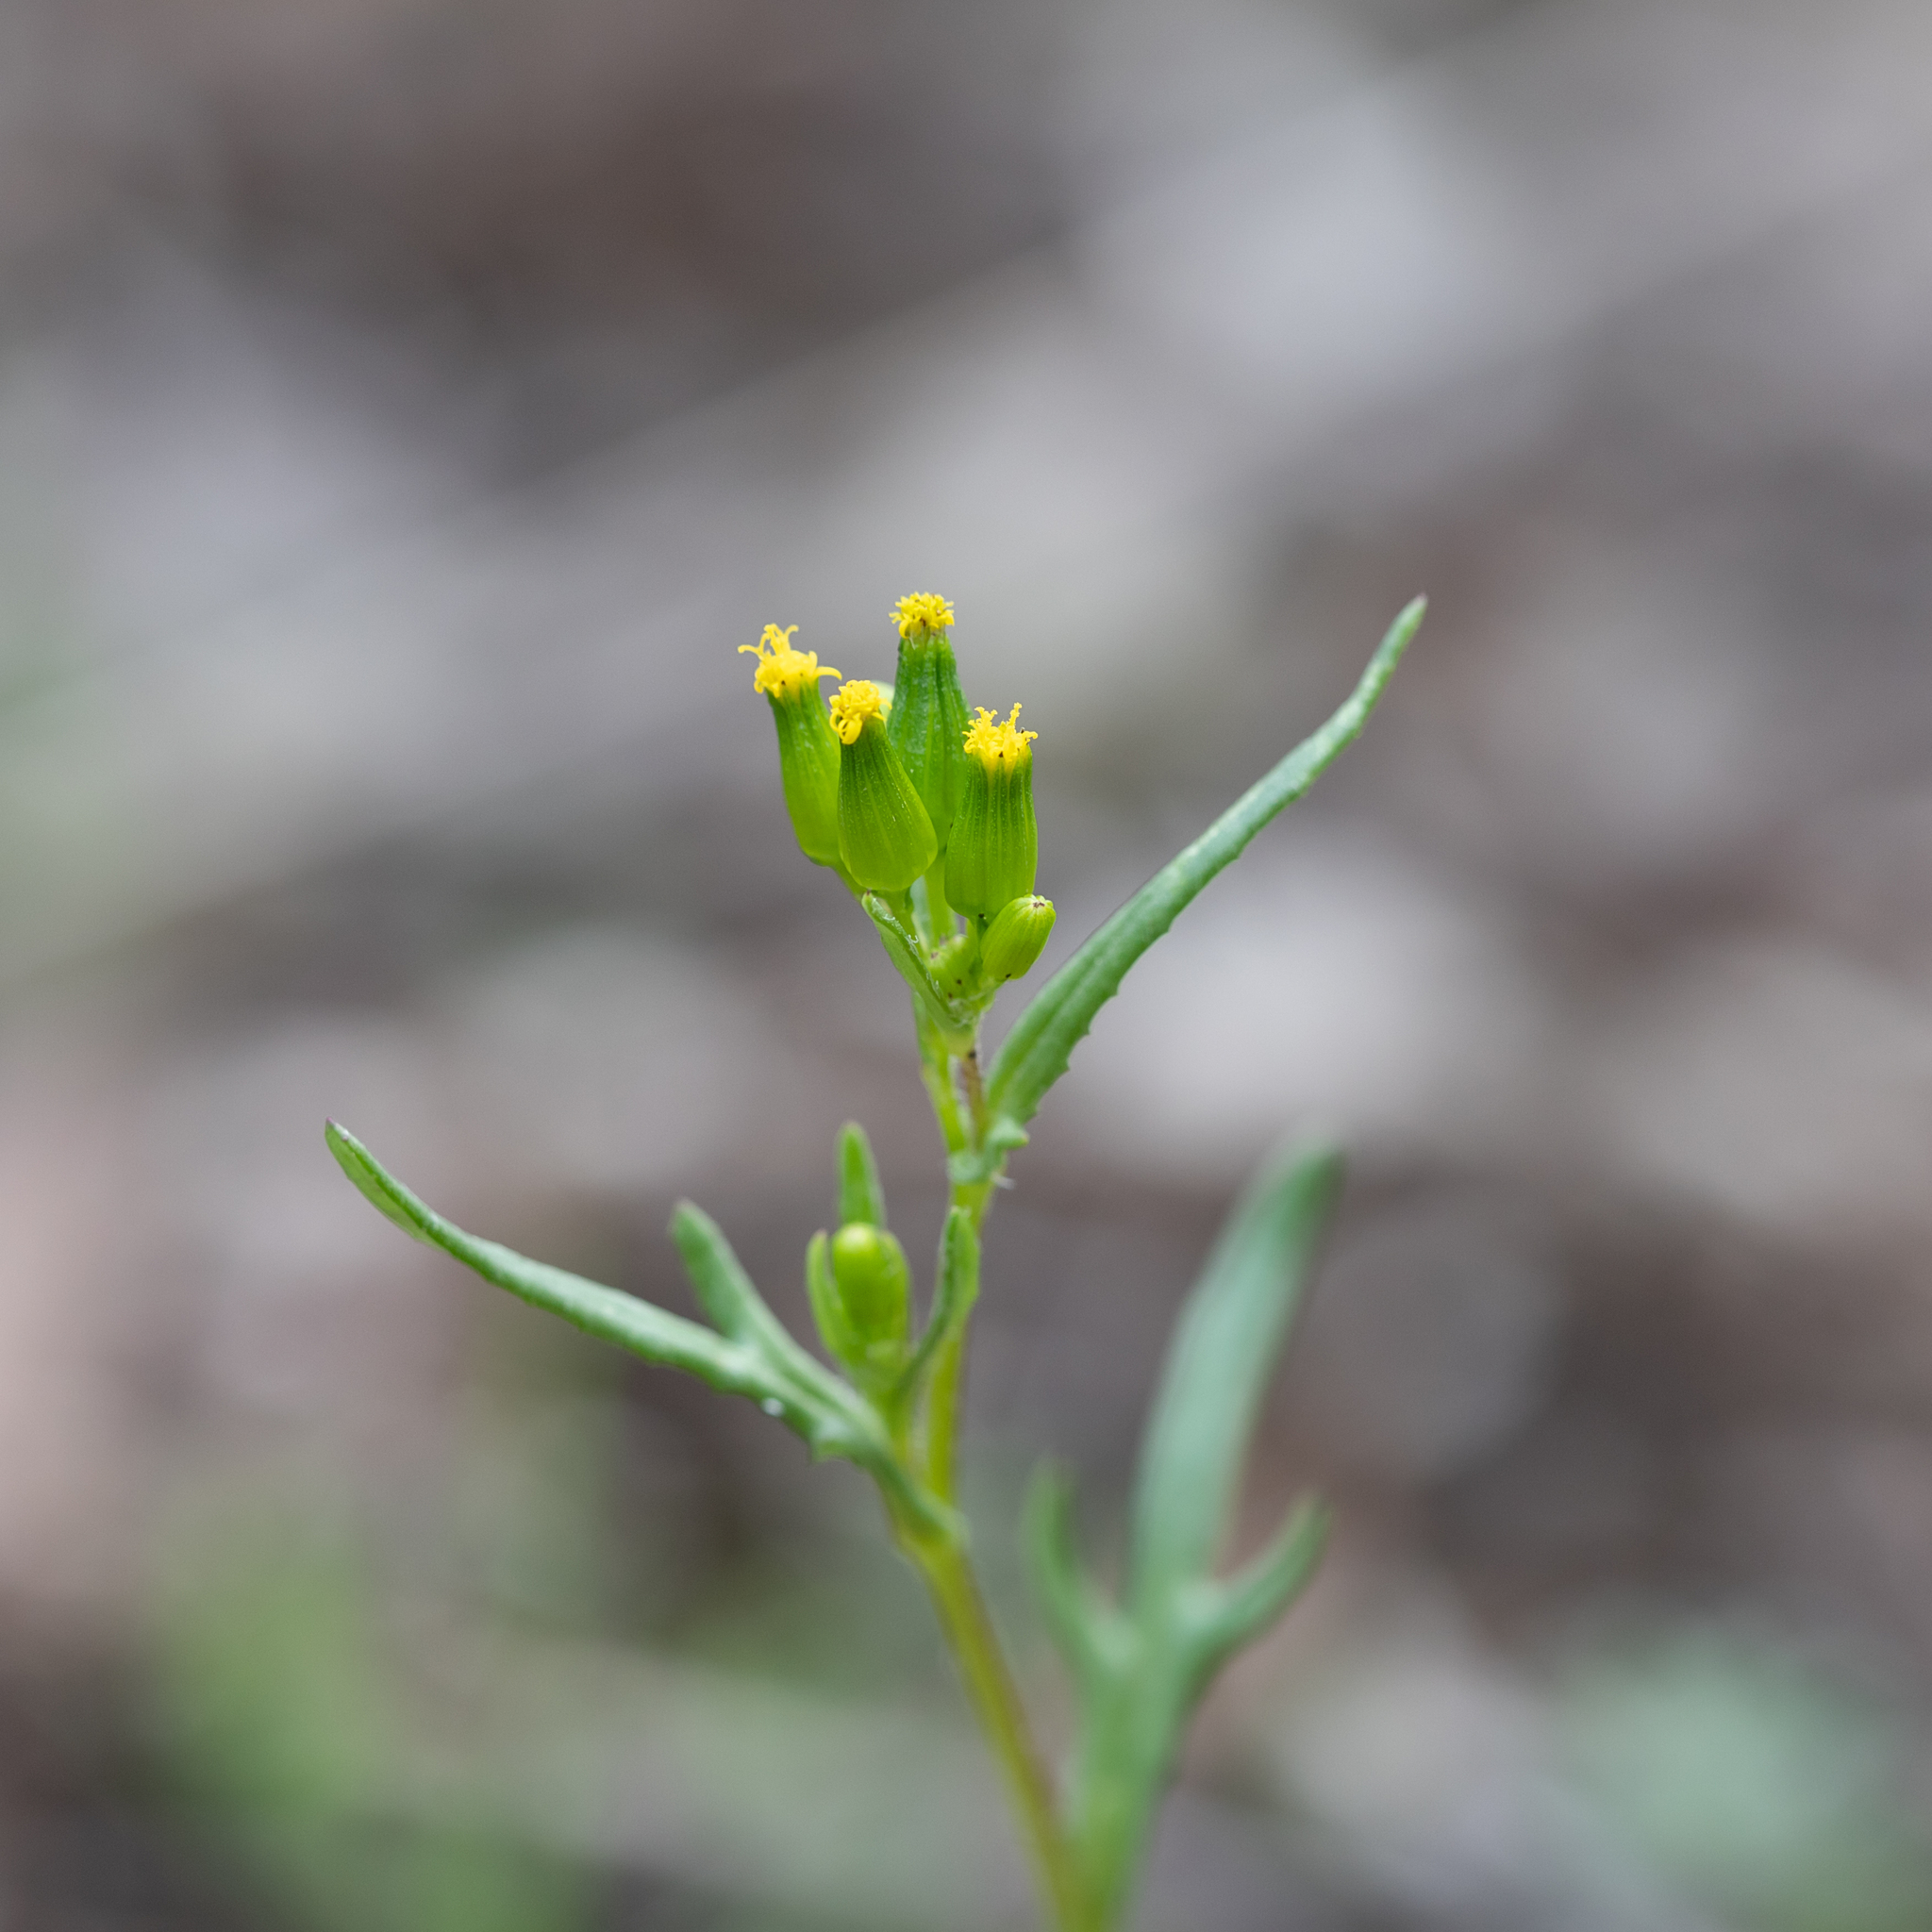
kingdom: Plantae
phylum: Tracheophyta
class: Magnoliopsida
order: Asterales
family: Asteraceae
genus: Senecio
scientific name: Senecio glossanthus
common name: Slender groundsel
